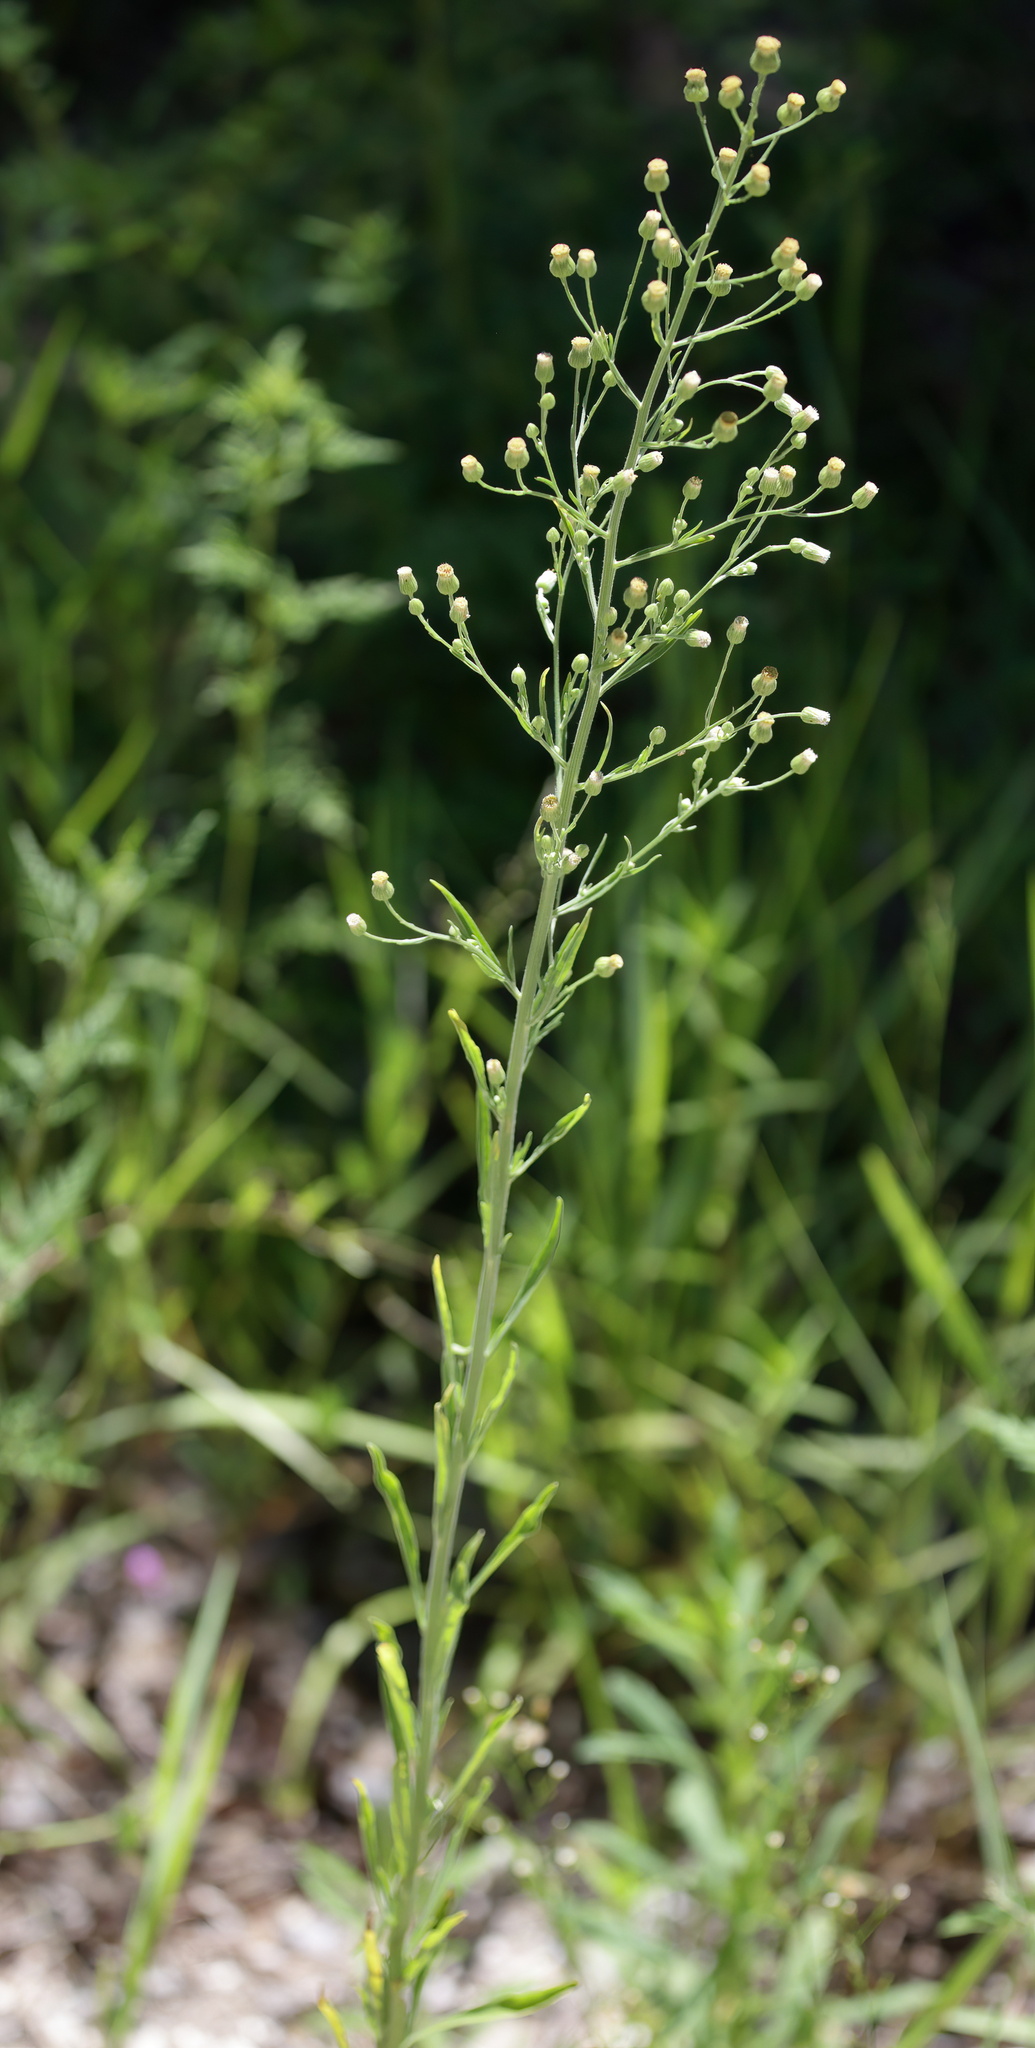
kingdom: Plantae
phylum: Tracheophyta
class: Magnoliopsida
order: Asterales
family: Asteraceae
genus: Erigeron
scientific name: Erigeron sumatrensis
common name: Daisy
